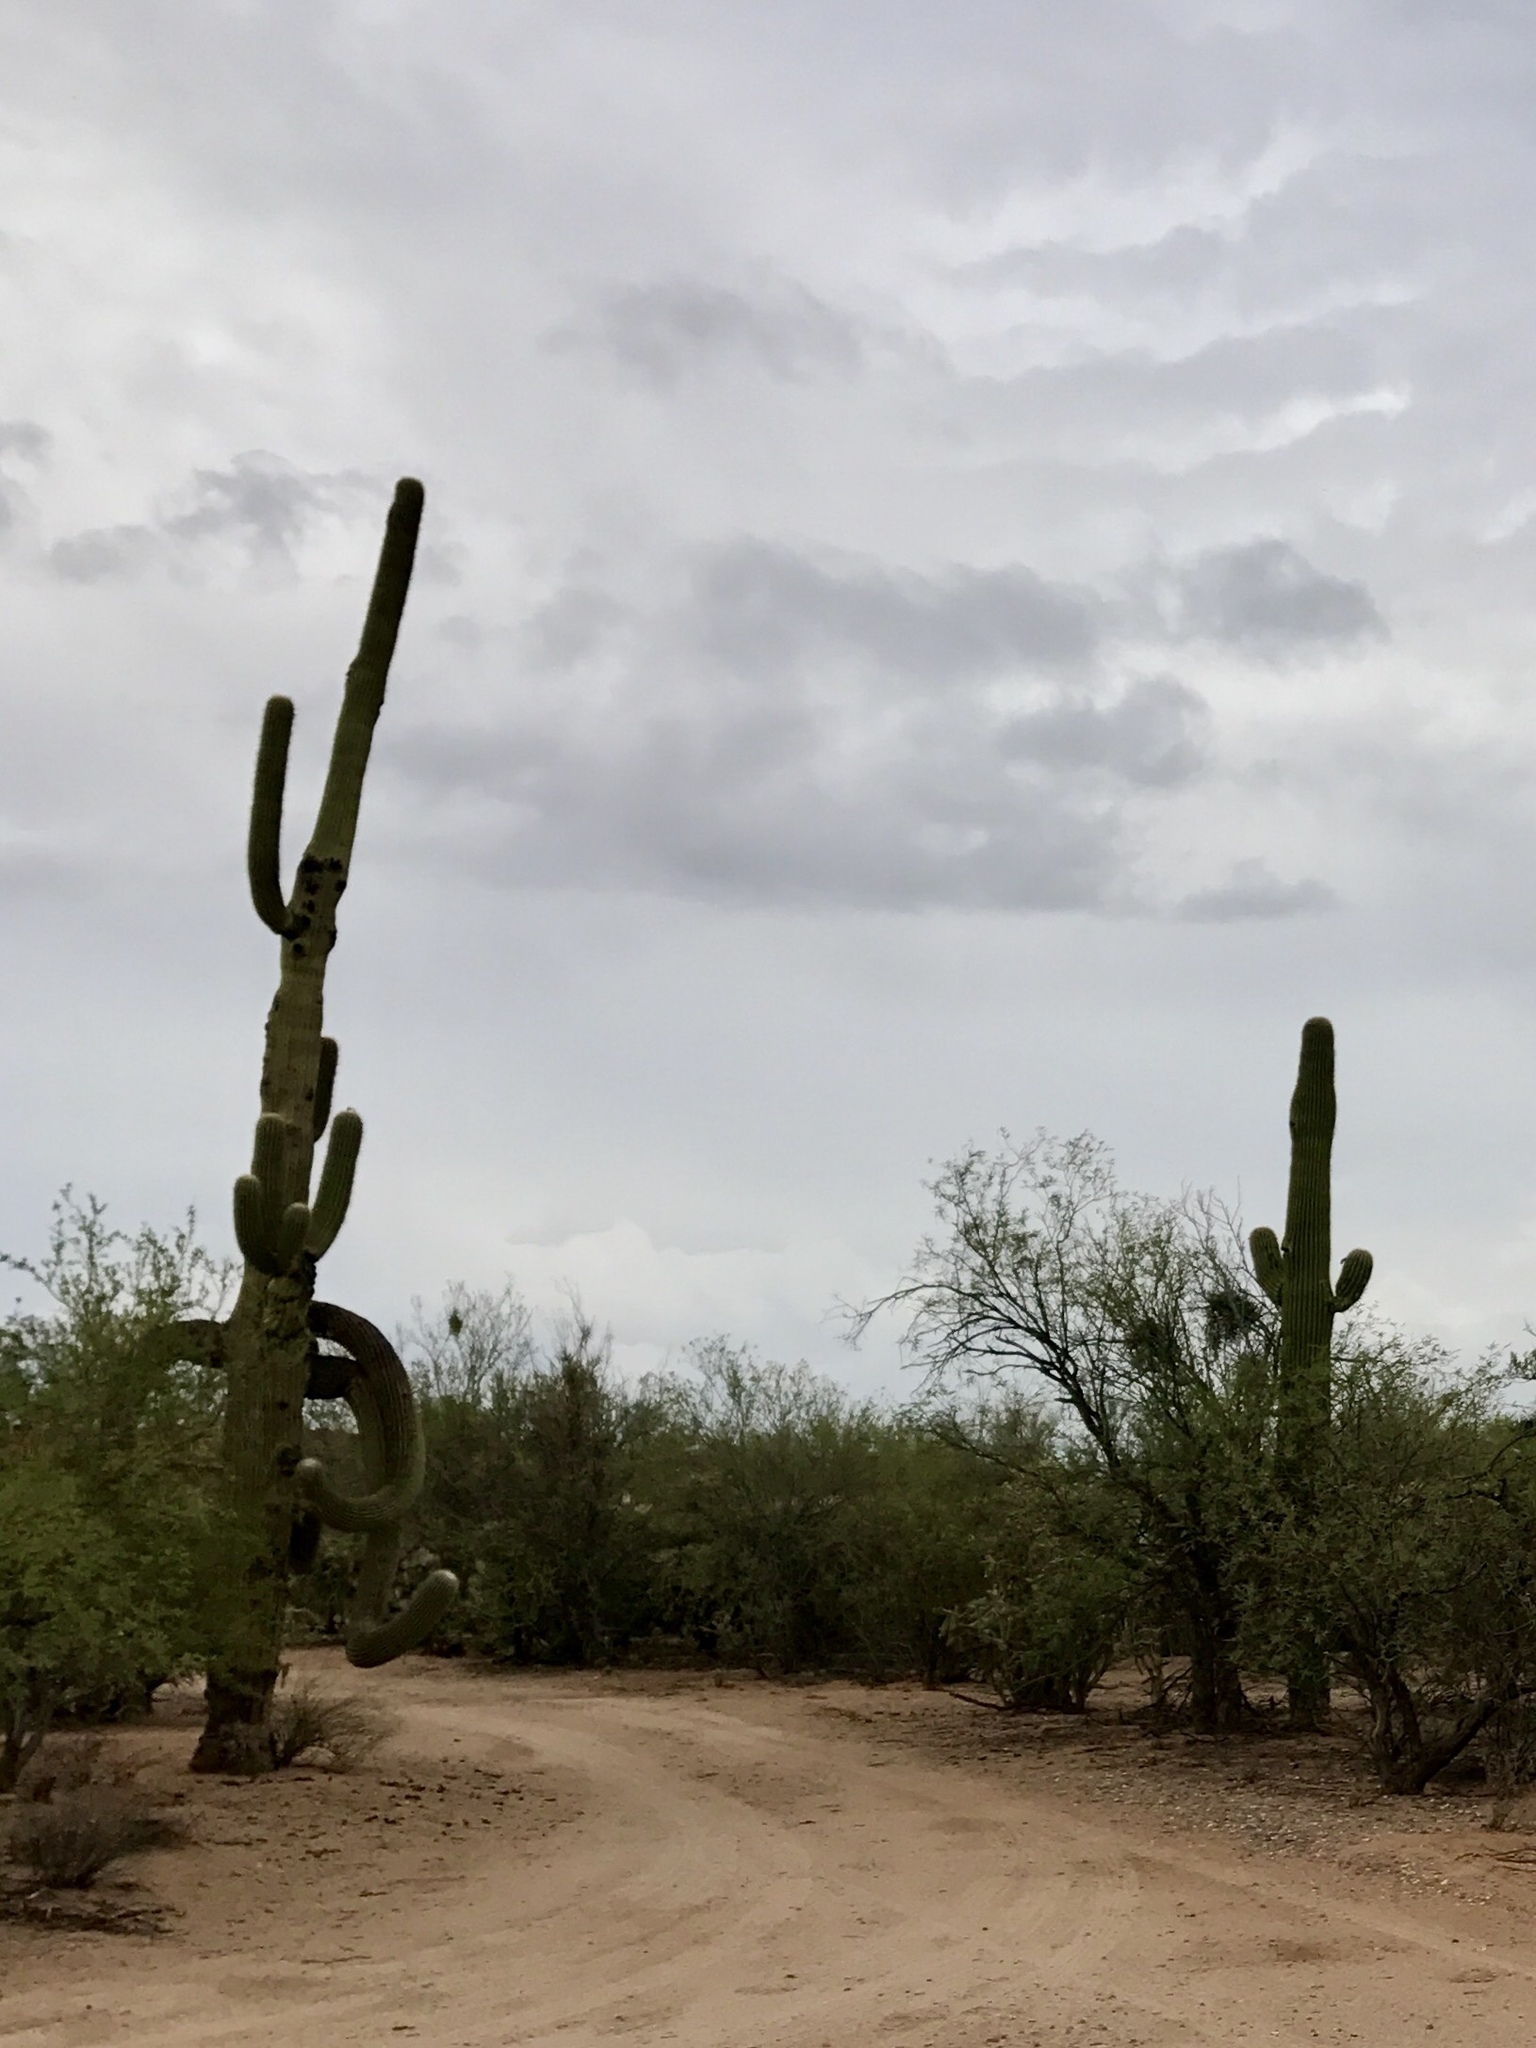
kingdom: Plantae
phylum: Tracheophyta
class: Magnoliopsida
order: Caryophyllales
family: Cactaceae
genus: Carnegiea
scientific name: Carnegiea gigantea
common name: Saguaro
